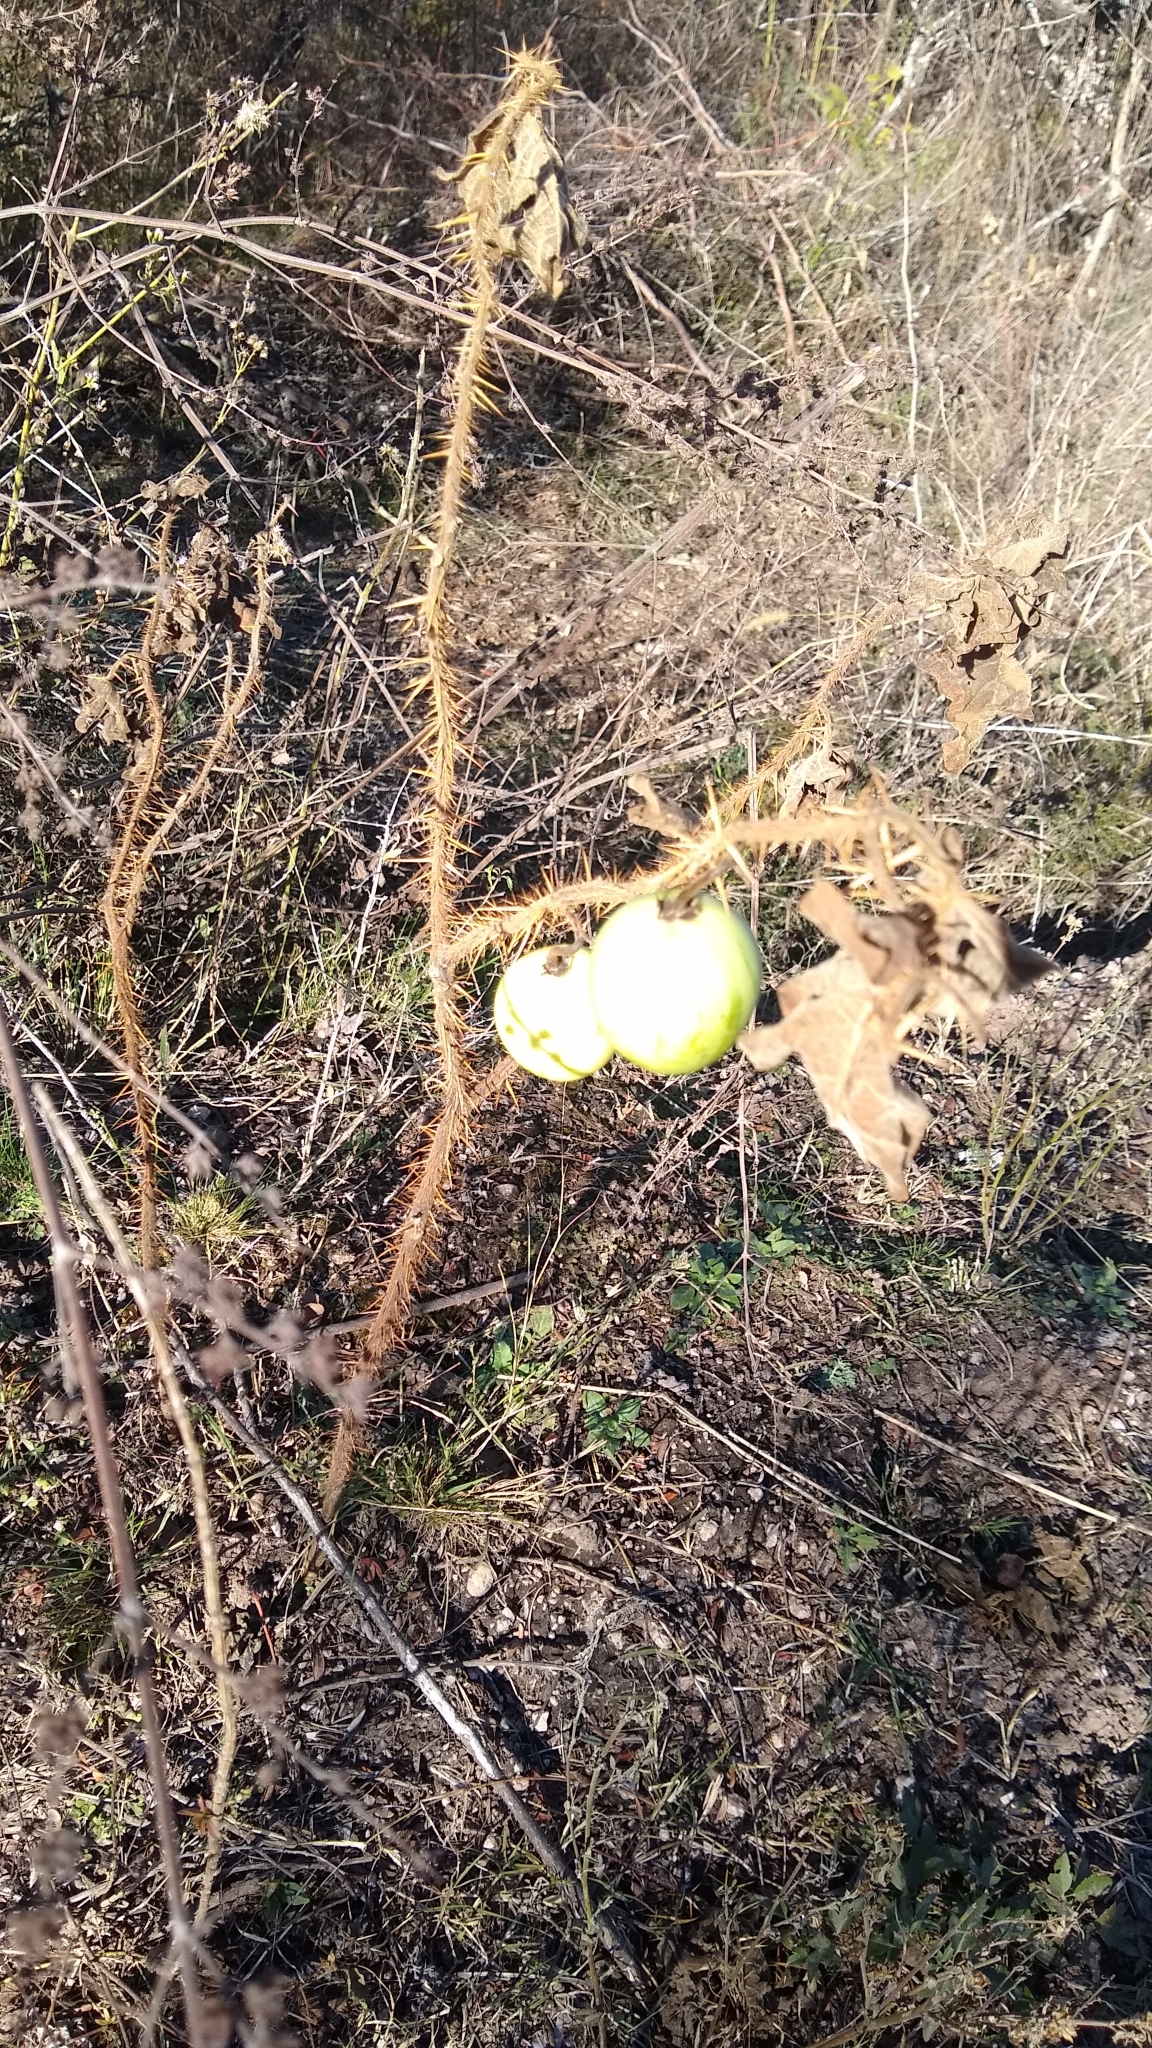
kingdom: Plantae
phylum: Tracheophyta
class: Magnoliopsida
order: Solanales
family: Solanaceae
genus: Solanum
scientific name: Solanum palinacanthum
